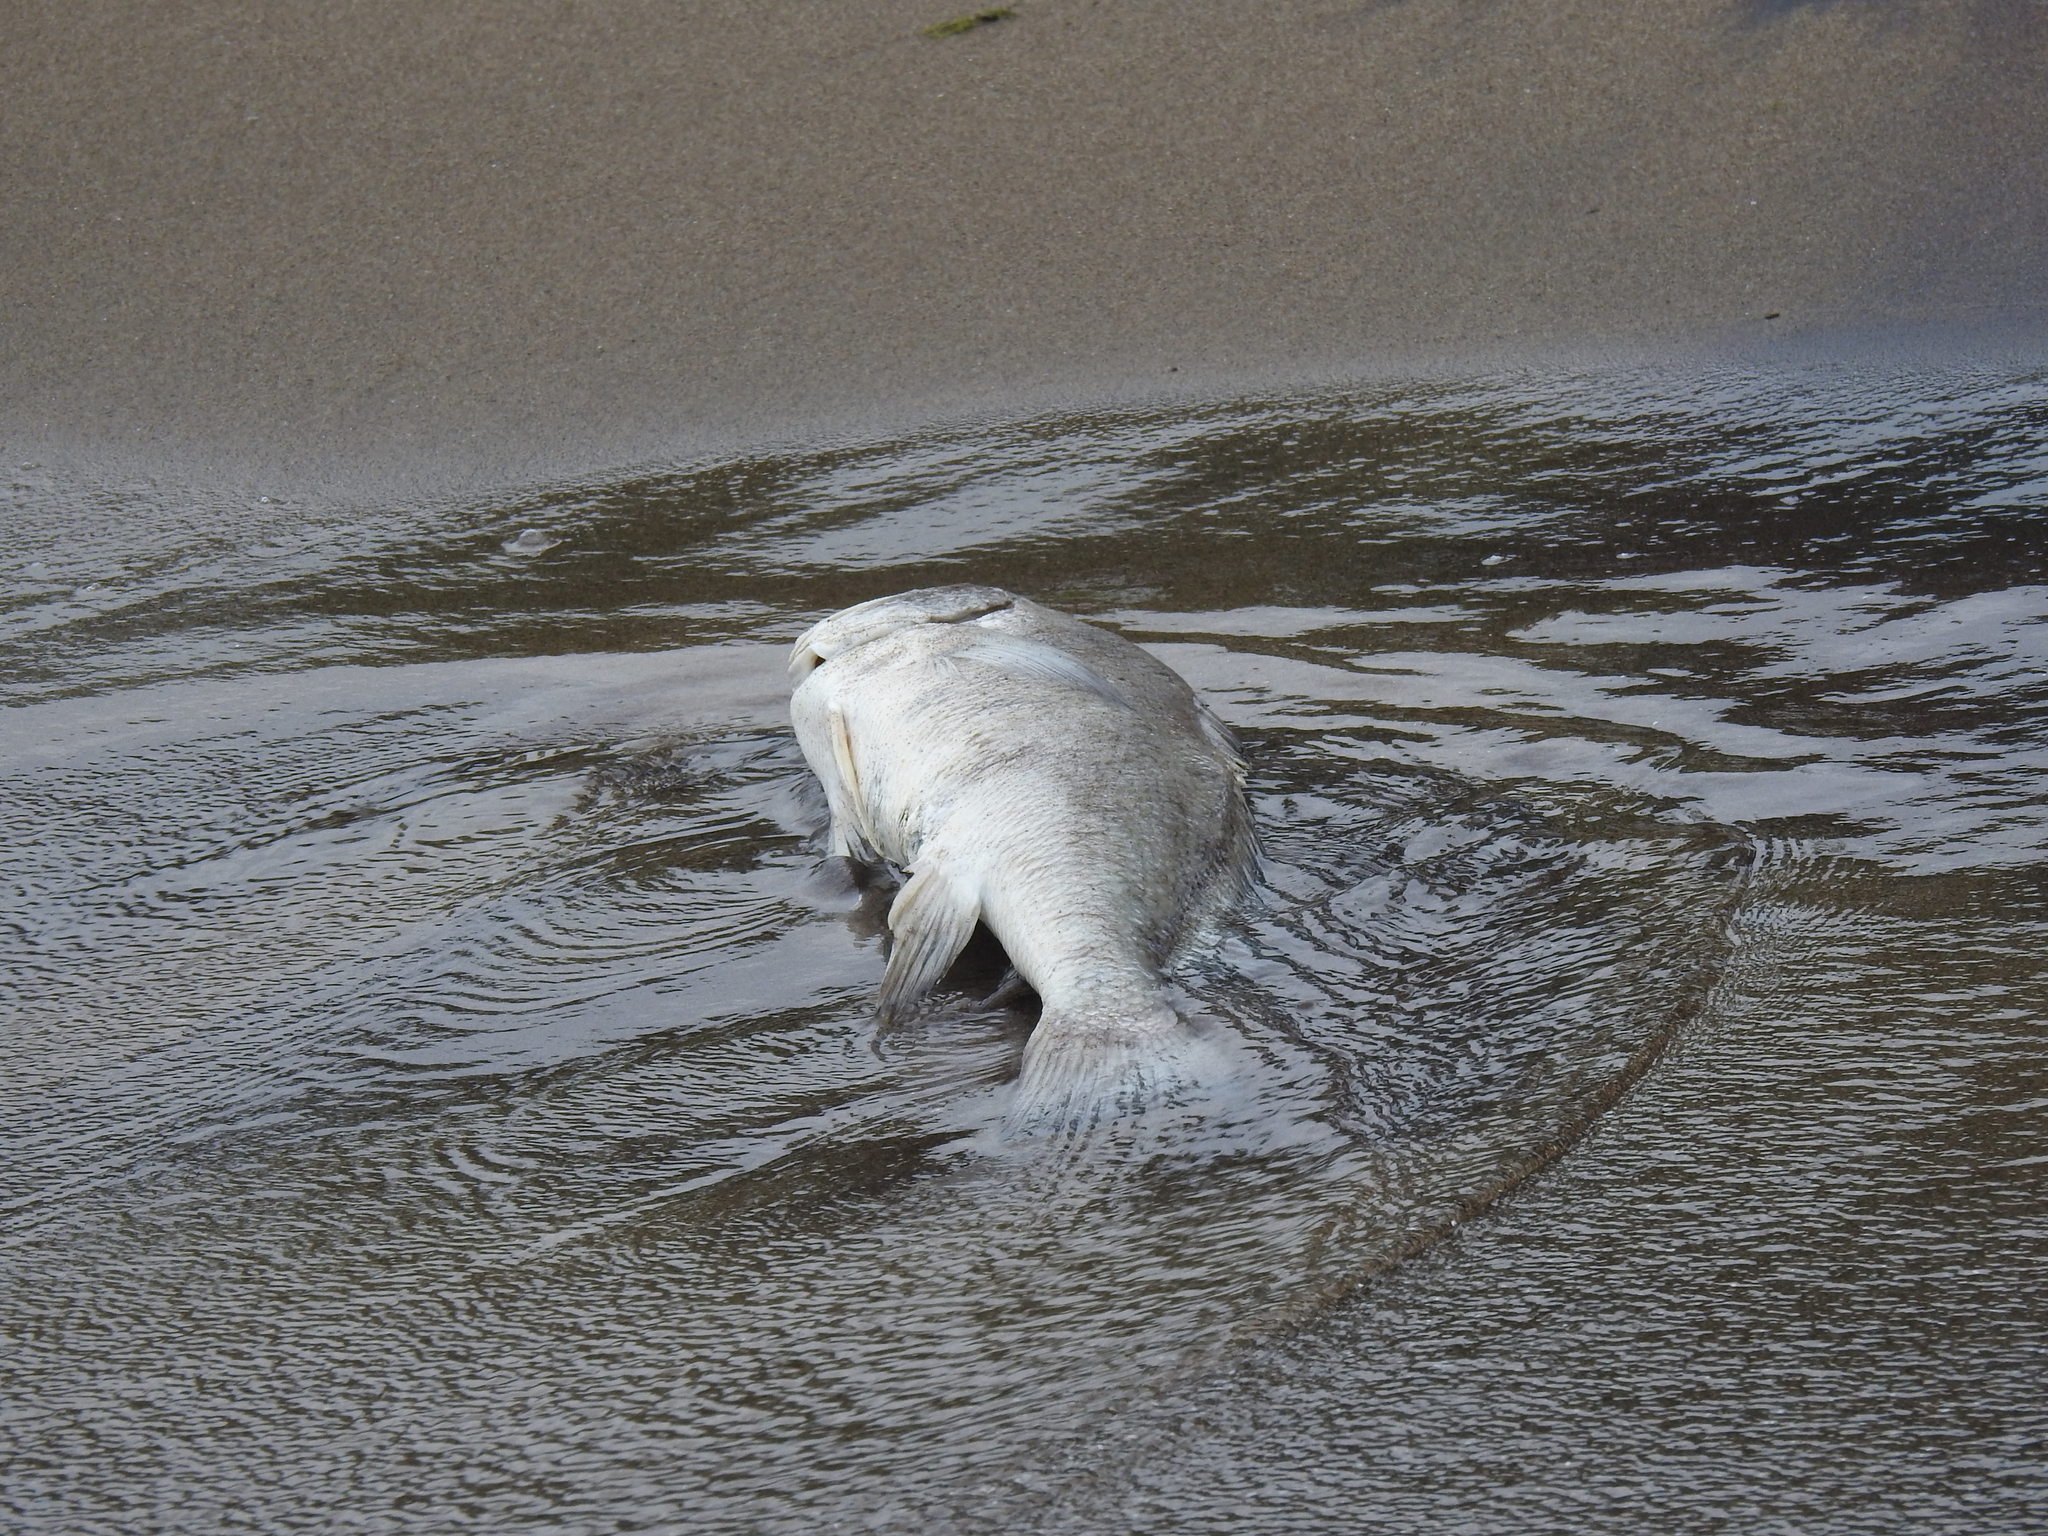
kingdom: Animalia
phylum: Chordata
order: Perciformes
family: Sciaenidae
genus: Aplodinotus
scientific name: Aplodinotus grunniens
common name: Freshwater drum
